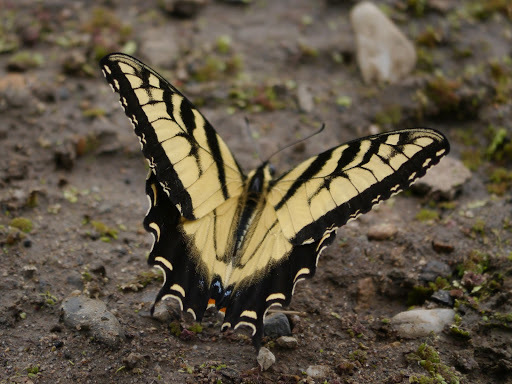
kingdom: Animalia
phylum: Arthropoda
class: Insecta
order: Lepidoptera
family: Papilionidae
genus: Papilio
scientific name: Papilio glaucus
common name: Tiger swallowtail
